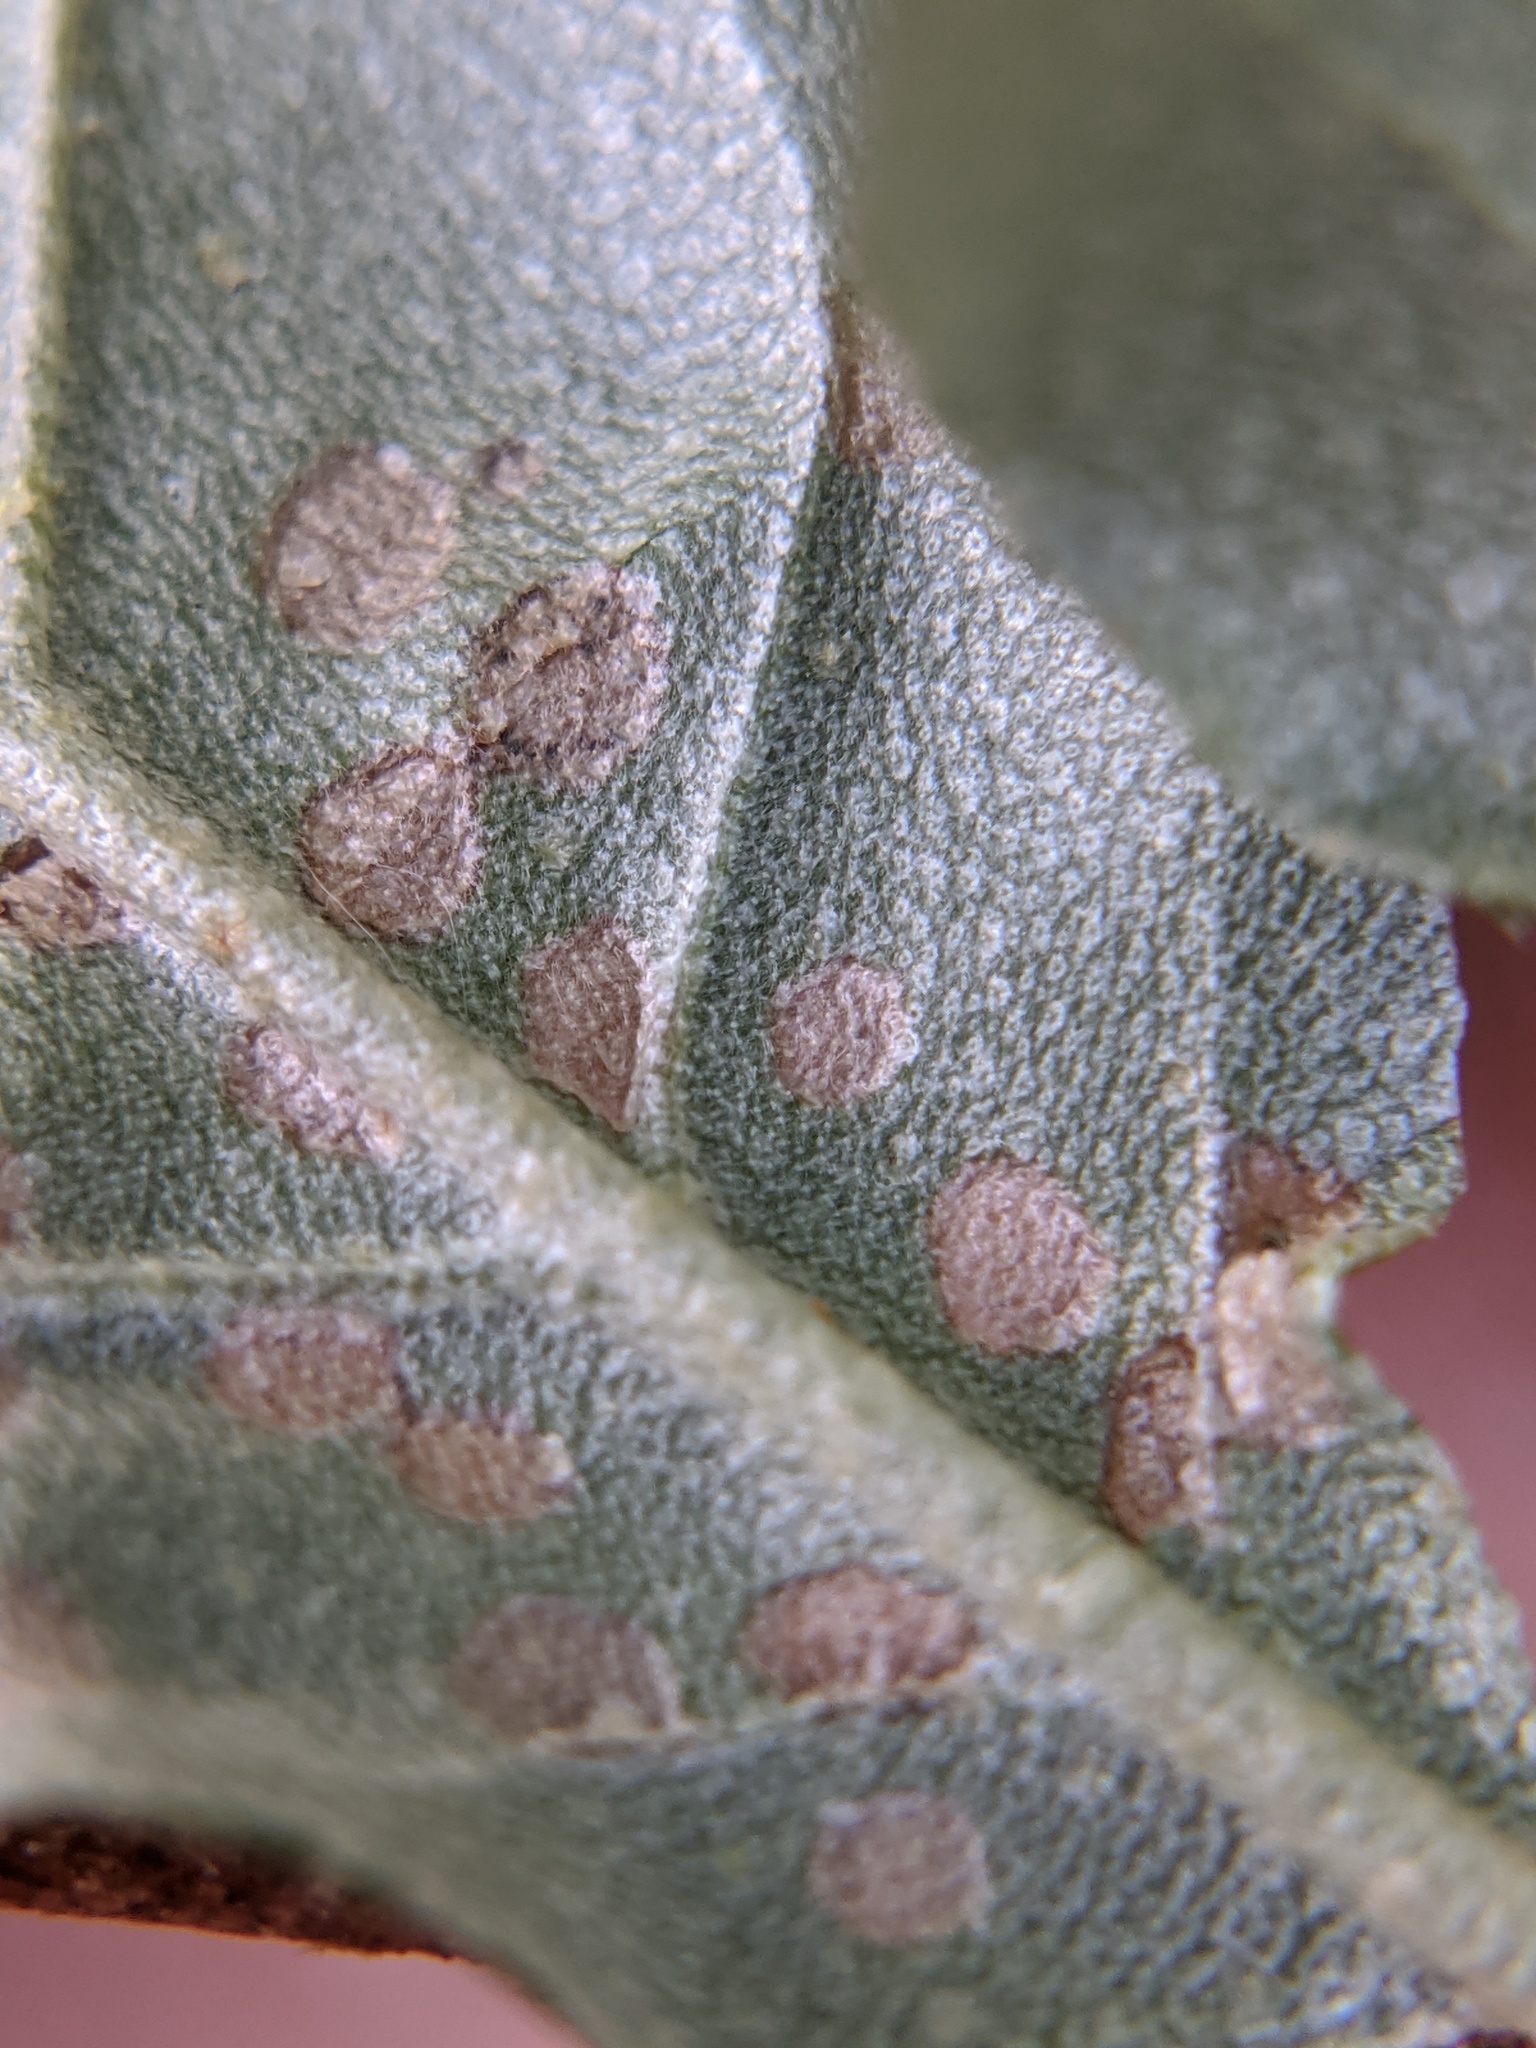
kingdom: Animalia
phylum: Arthropoda
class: Insecta
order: Hemiptera
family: Miridae
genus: Poecilocapsus
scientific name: Poecilocapsus lineatus
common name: Four-lined plant bug
